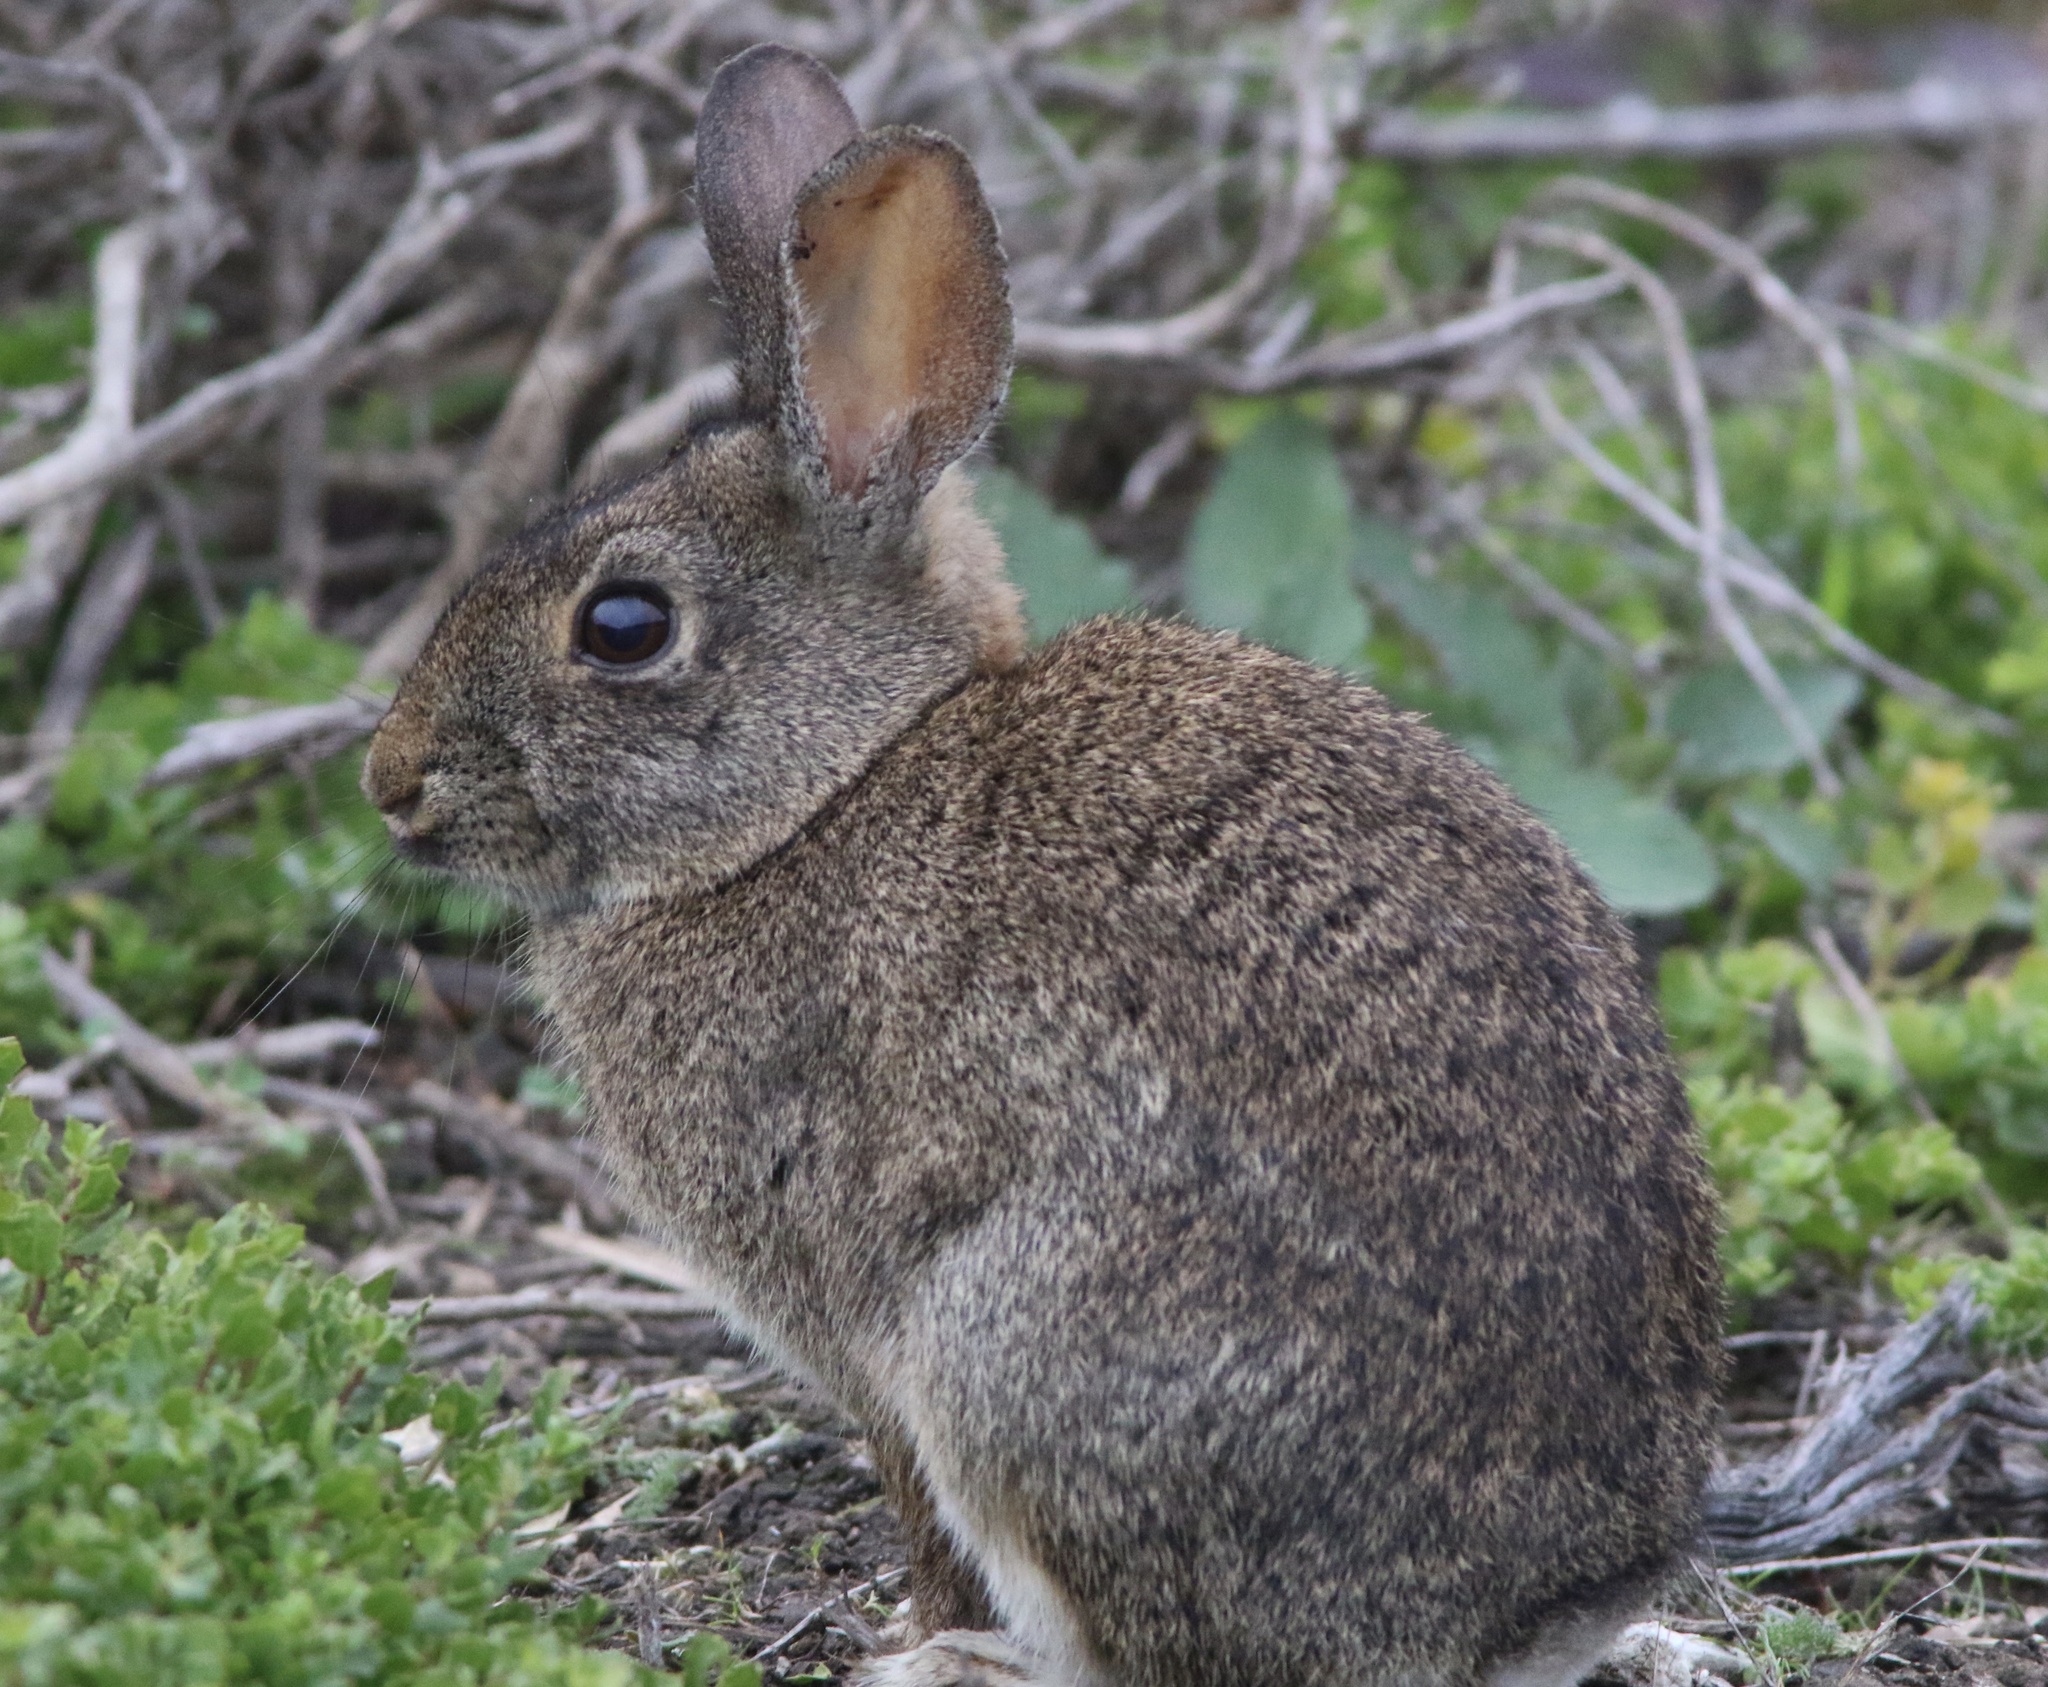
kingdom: Animalia
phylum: Chordata
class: Mammalia
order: Lagomorpha
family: Leporidae
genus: Sylvilagus
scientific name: Sylvilagus bachmani
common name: Brush rabbit
